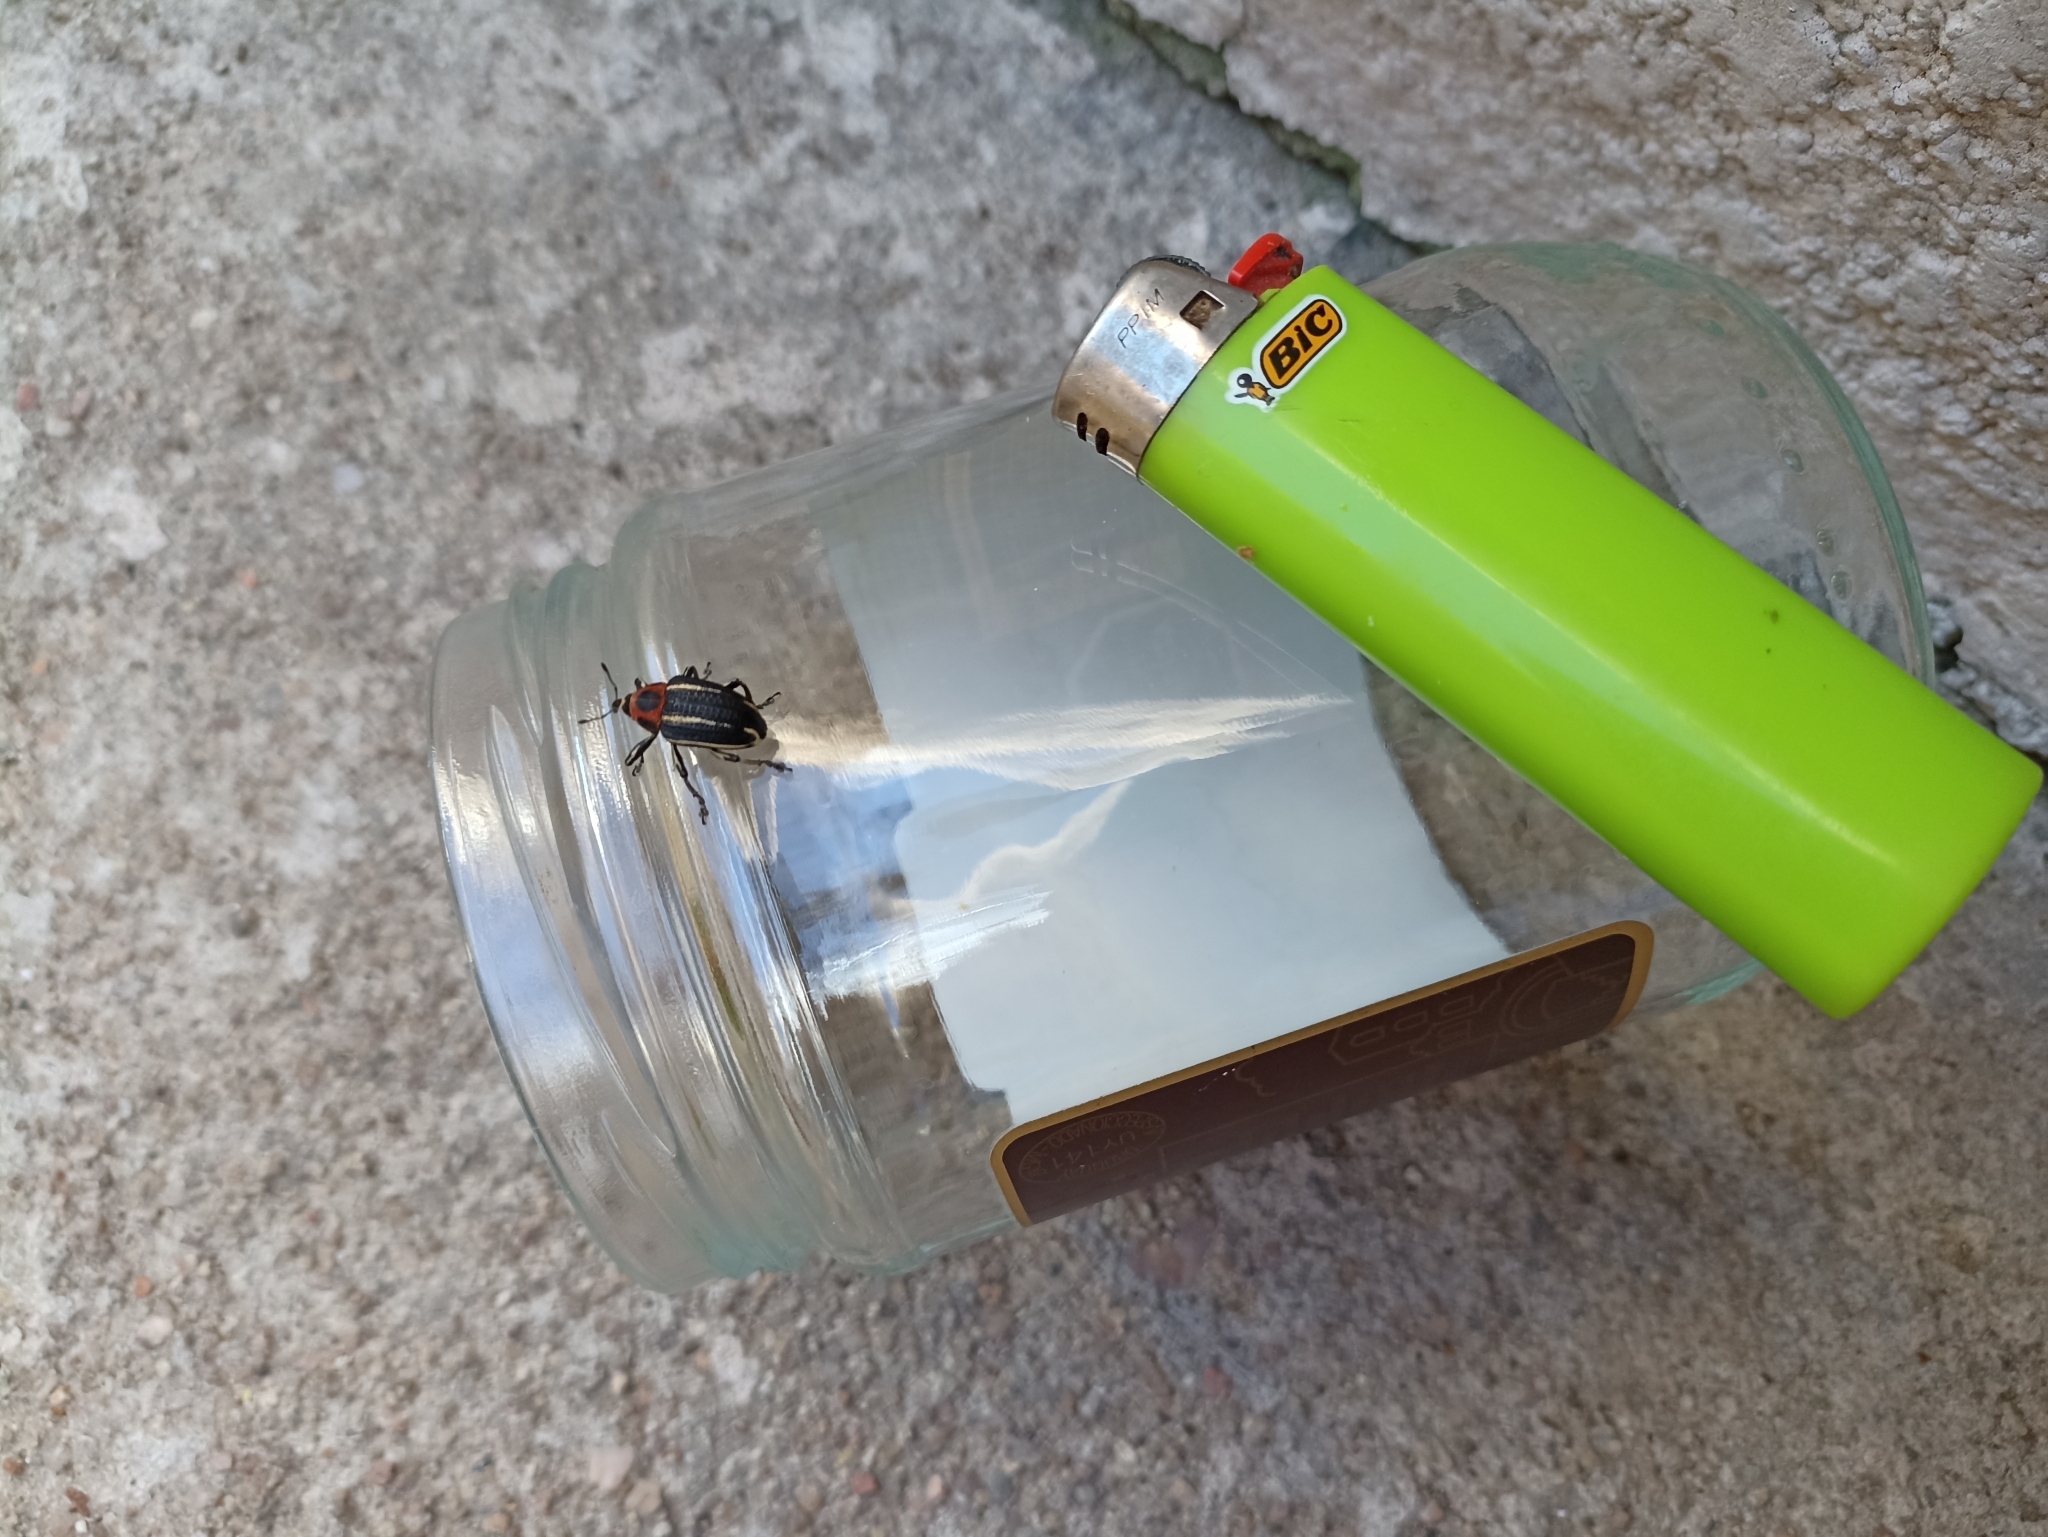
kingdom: Animalia
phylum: Arthropoda
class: Insecta
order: Coleoptera
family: Curculionidae
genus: Neodiplogrammus
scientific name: Neodiplogrammus
